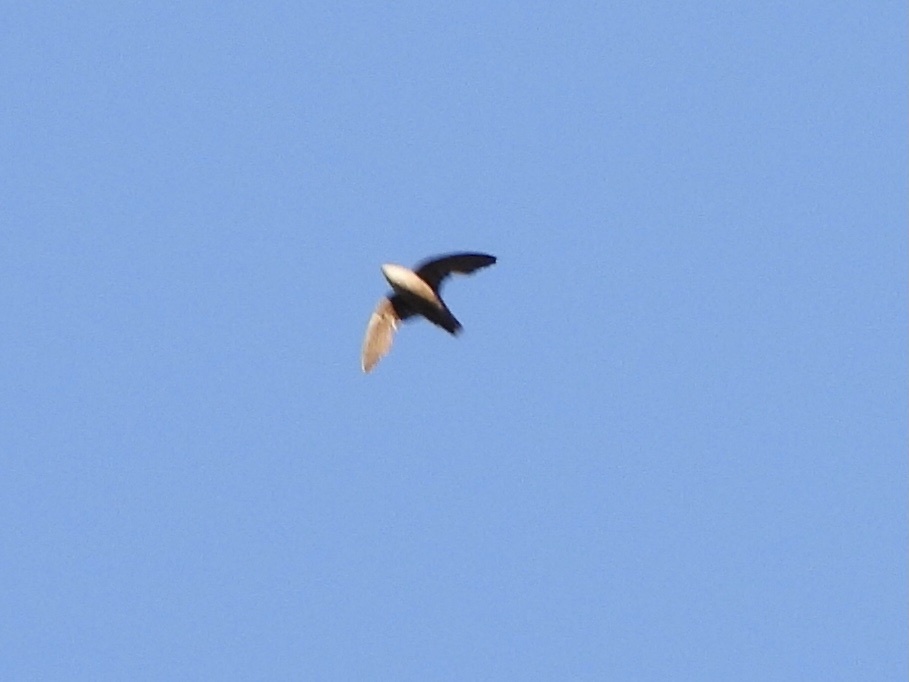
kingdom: Animalia
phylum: Chordata
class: Aves
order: Apodiformes
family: Apodidae
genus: Chaetura
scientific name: Chaetura vauxi
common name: Vaux's swift
